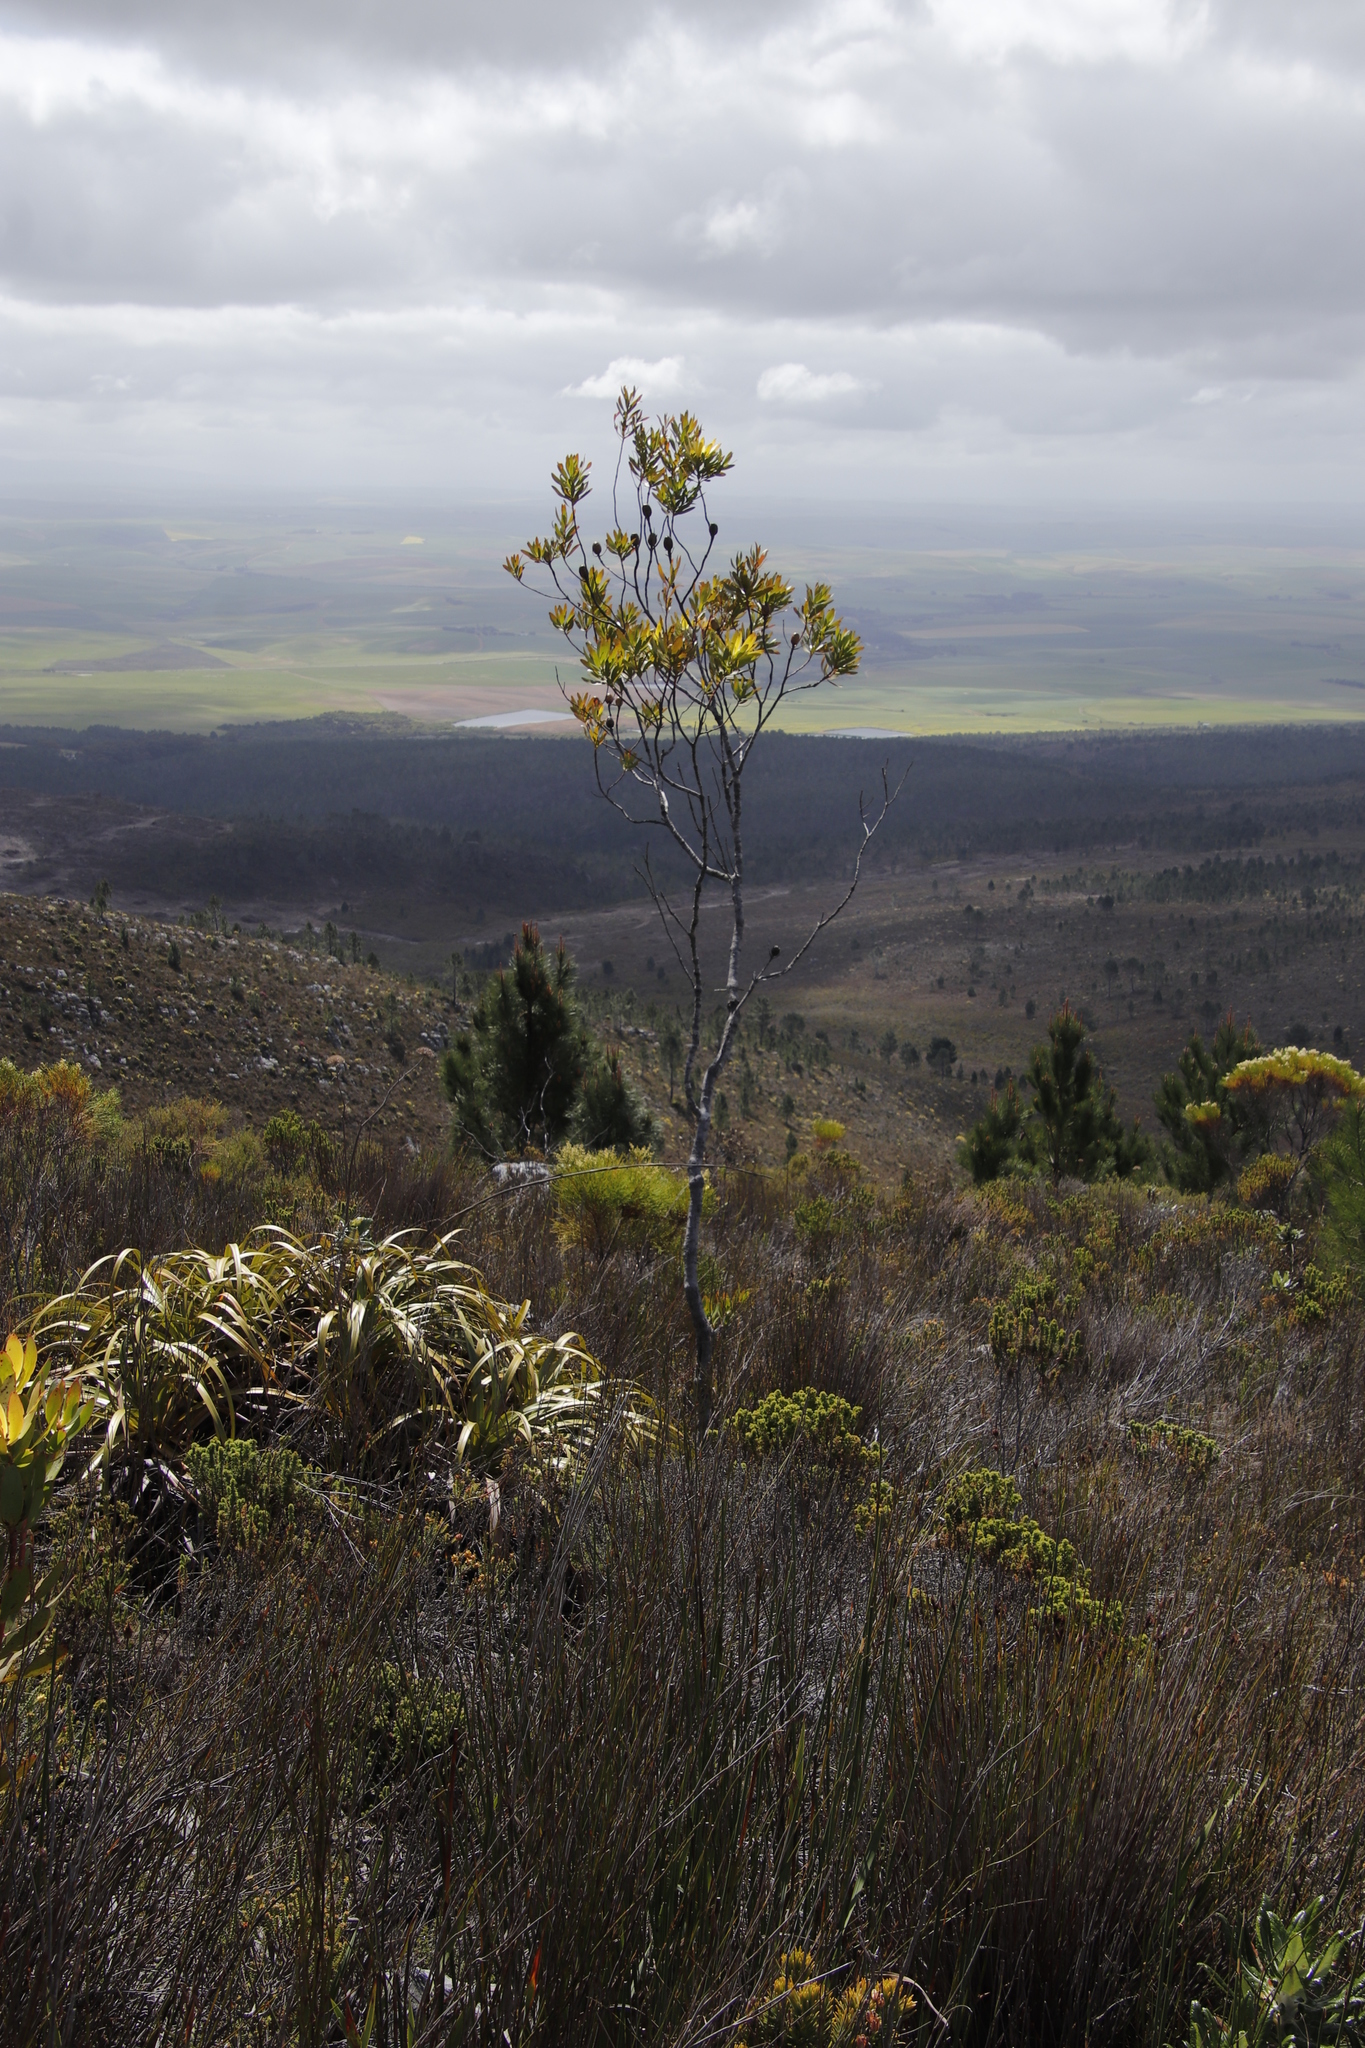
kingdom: Plantae
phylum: Tracheophyta
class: Magnoliopsida
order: Proteales
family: Proteaceae
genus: Leucadendron
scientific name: Leucadendron xanthoconus
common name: Sickle-leaf conebush
